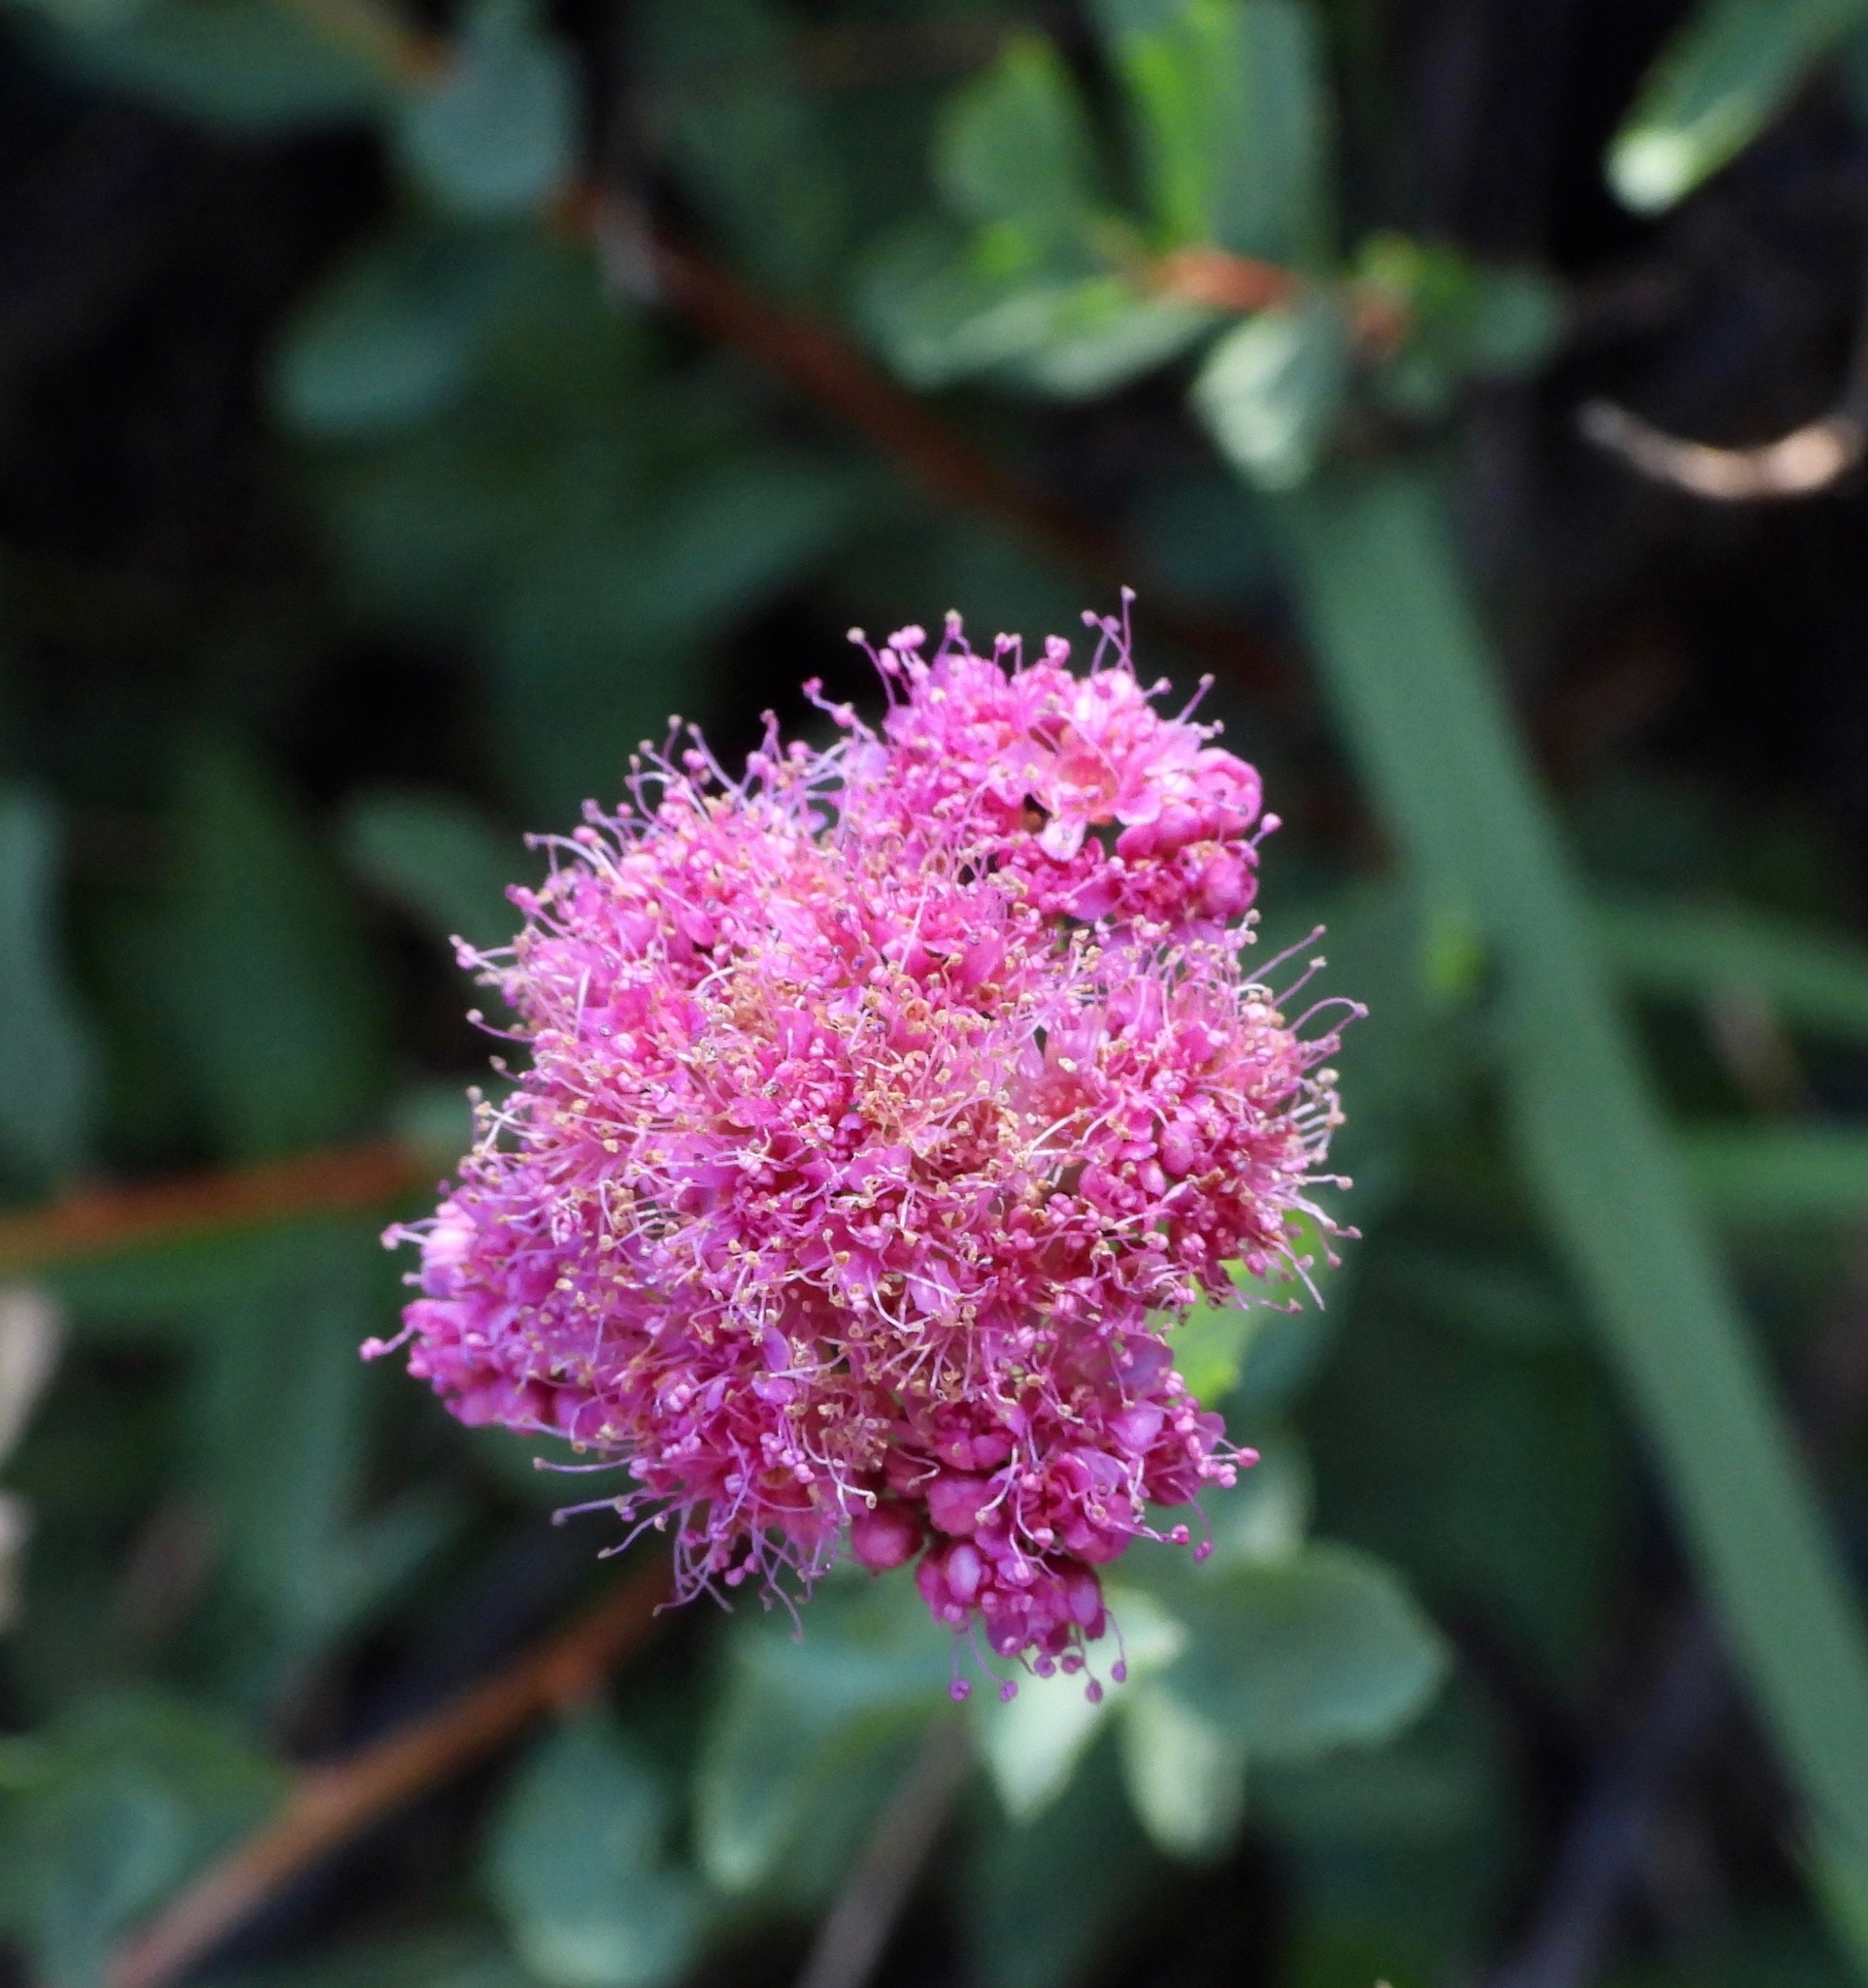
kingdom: Plantae
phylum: Tracheophyta
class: Magnoliopsida
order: Rosales
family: Rosaceae
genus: Spiraea
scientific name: Spiraea splendens
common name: Subalpine meadowsweet
